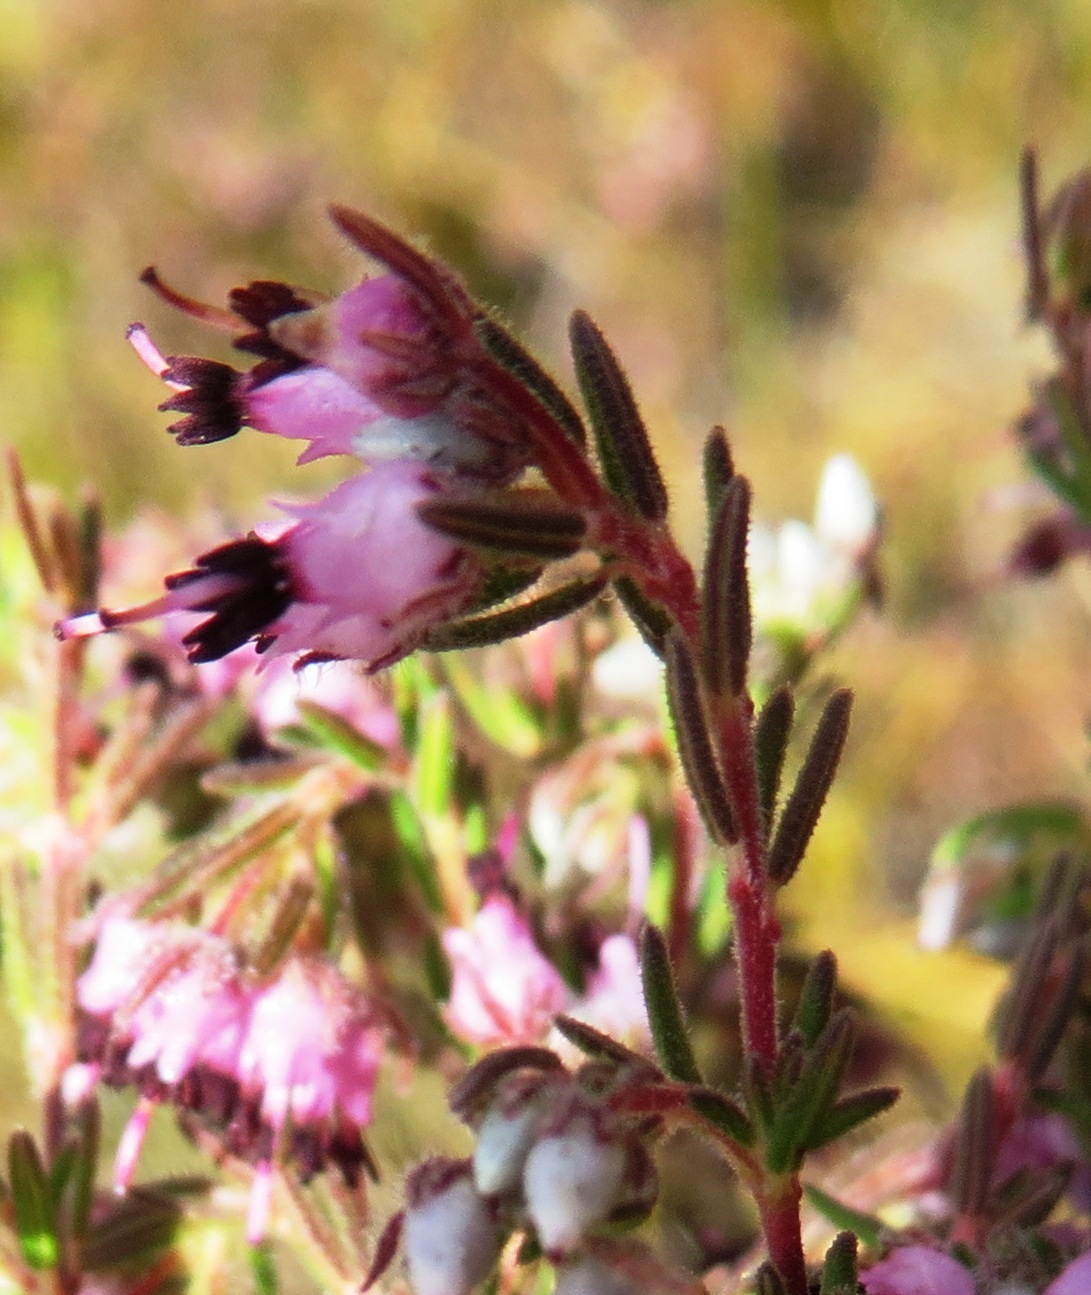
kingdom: Plantae
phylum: Tracheophyta
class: Magnoliopsida
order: Ericales
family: Ericaceae
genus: Erica
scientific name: Erica filiformis
